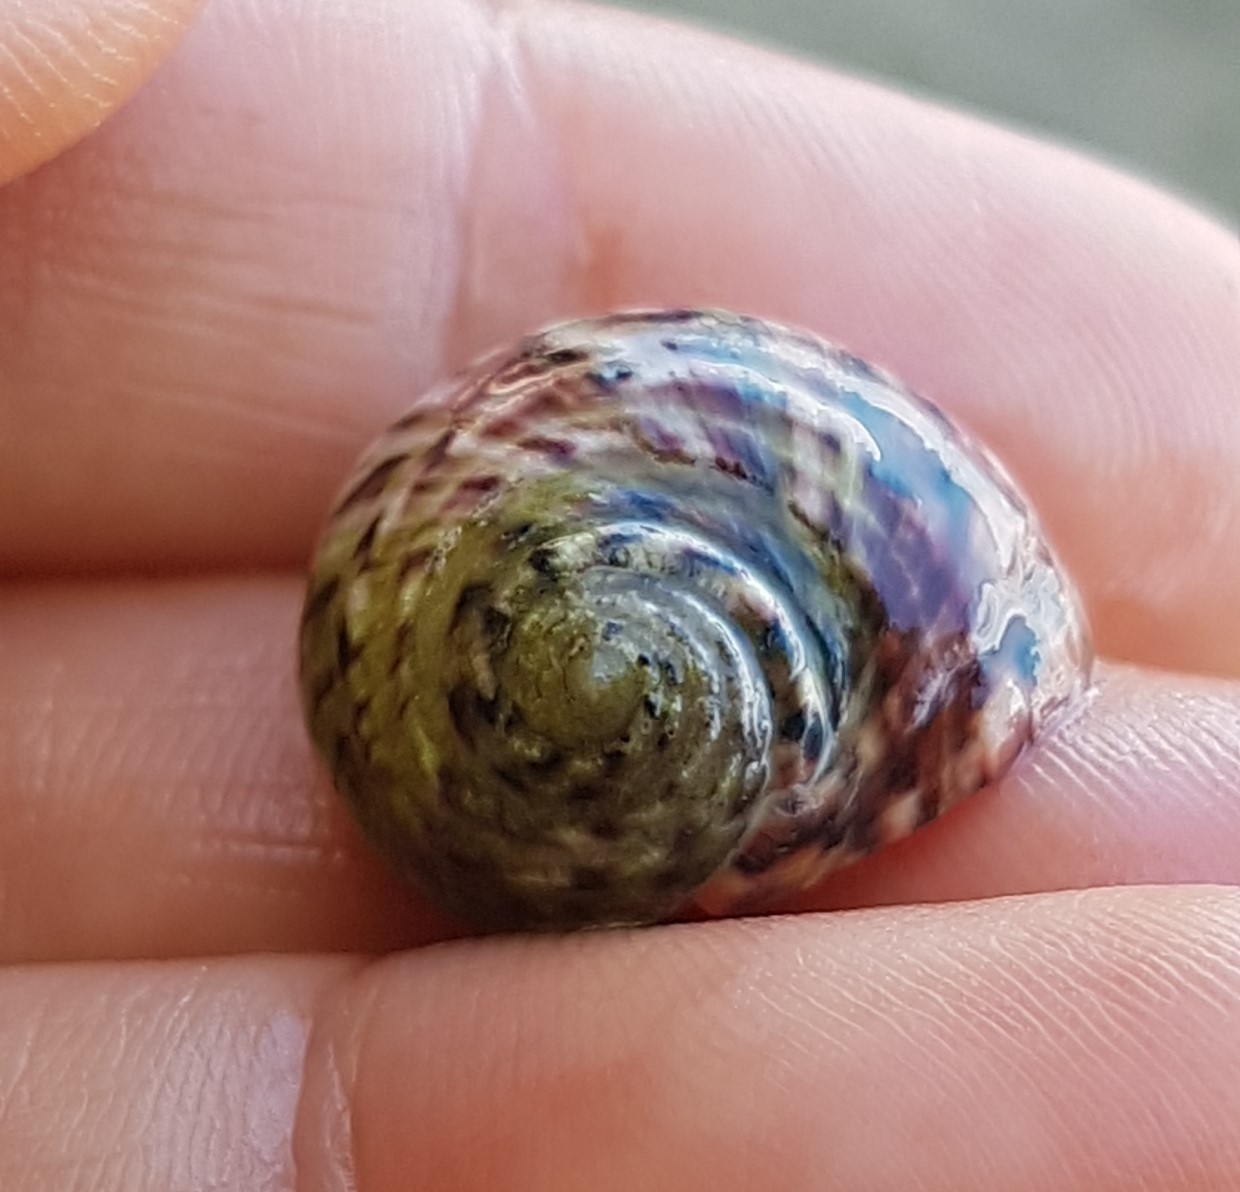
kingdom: Animalia
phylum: Mollusca
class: Gastropoda
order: Cycloneritida
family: Neritidae
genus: Nerita
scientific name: Nerita versicolor
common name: Four-tooth nerite
